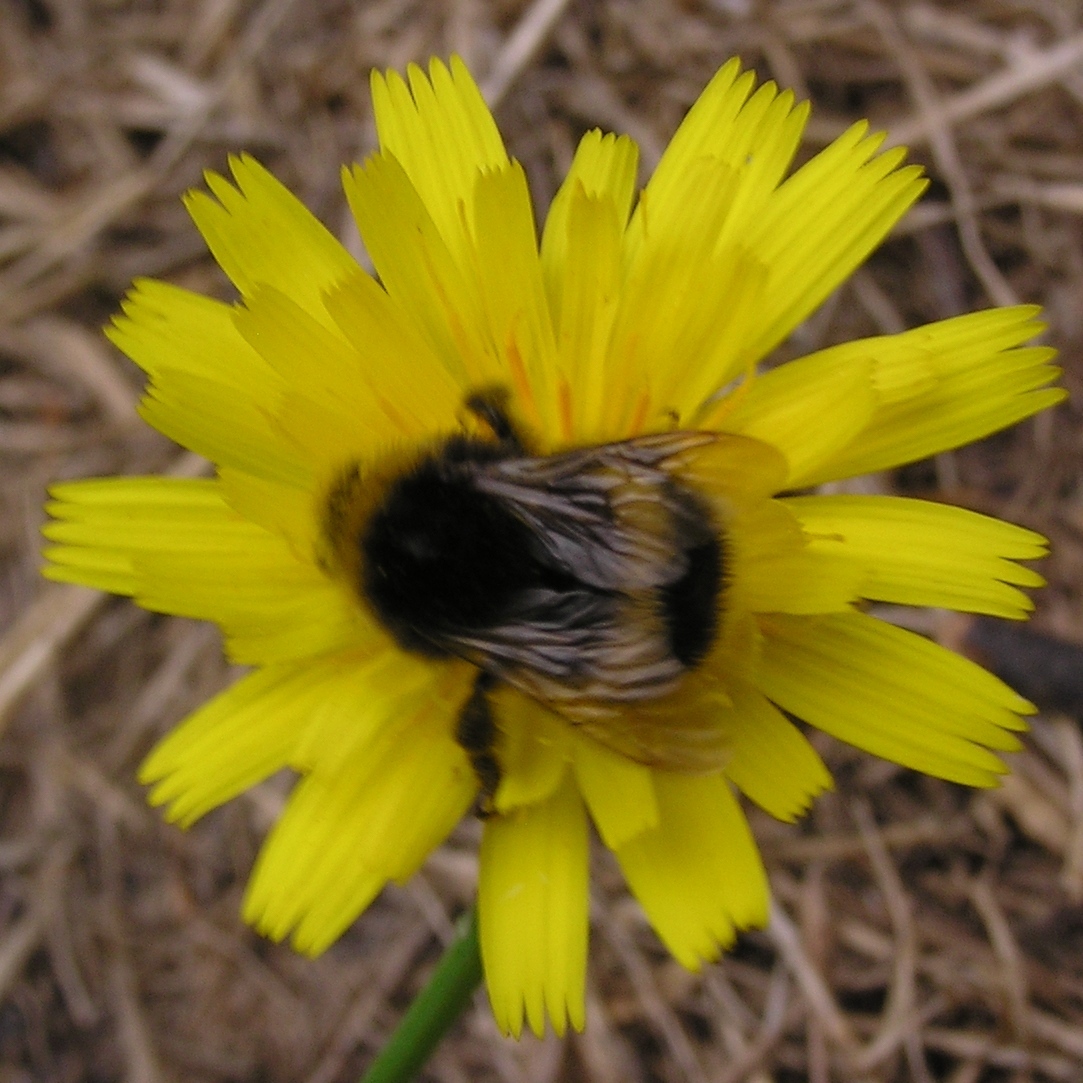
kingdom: Animalia
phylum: Arthropoda
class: Insecta
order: Hymenoptera
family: Apidae
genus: Bombus
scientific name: Bombus terrestris
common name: Buff-tailed bumblebee
